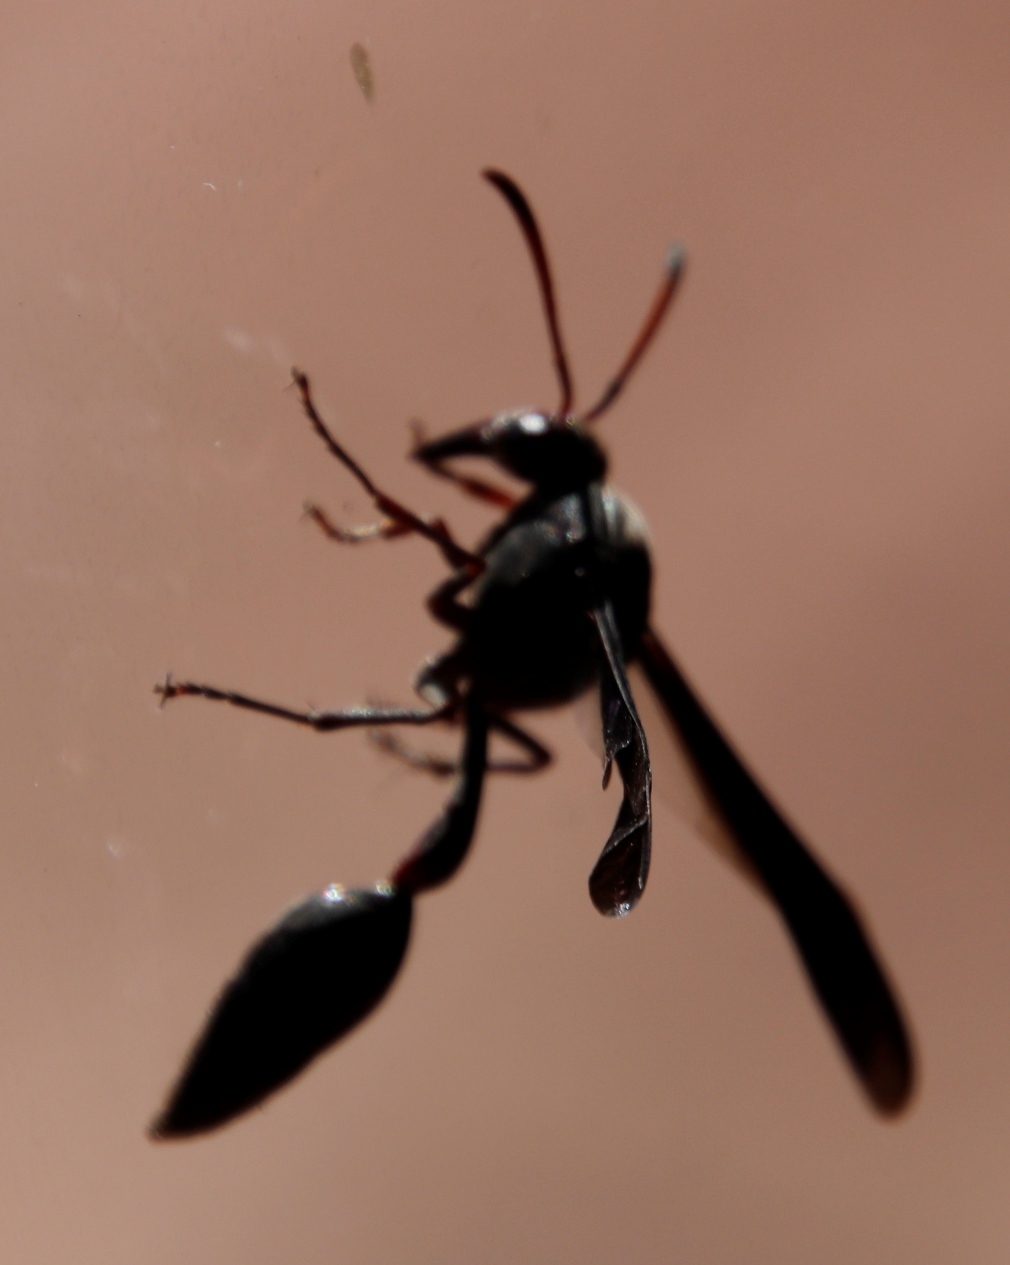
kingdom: Animalia
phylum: Arthropoda
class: Insecta
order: Hymenoptera
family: Eumenidae
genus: Delta
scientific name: Delta emarginatum
